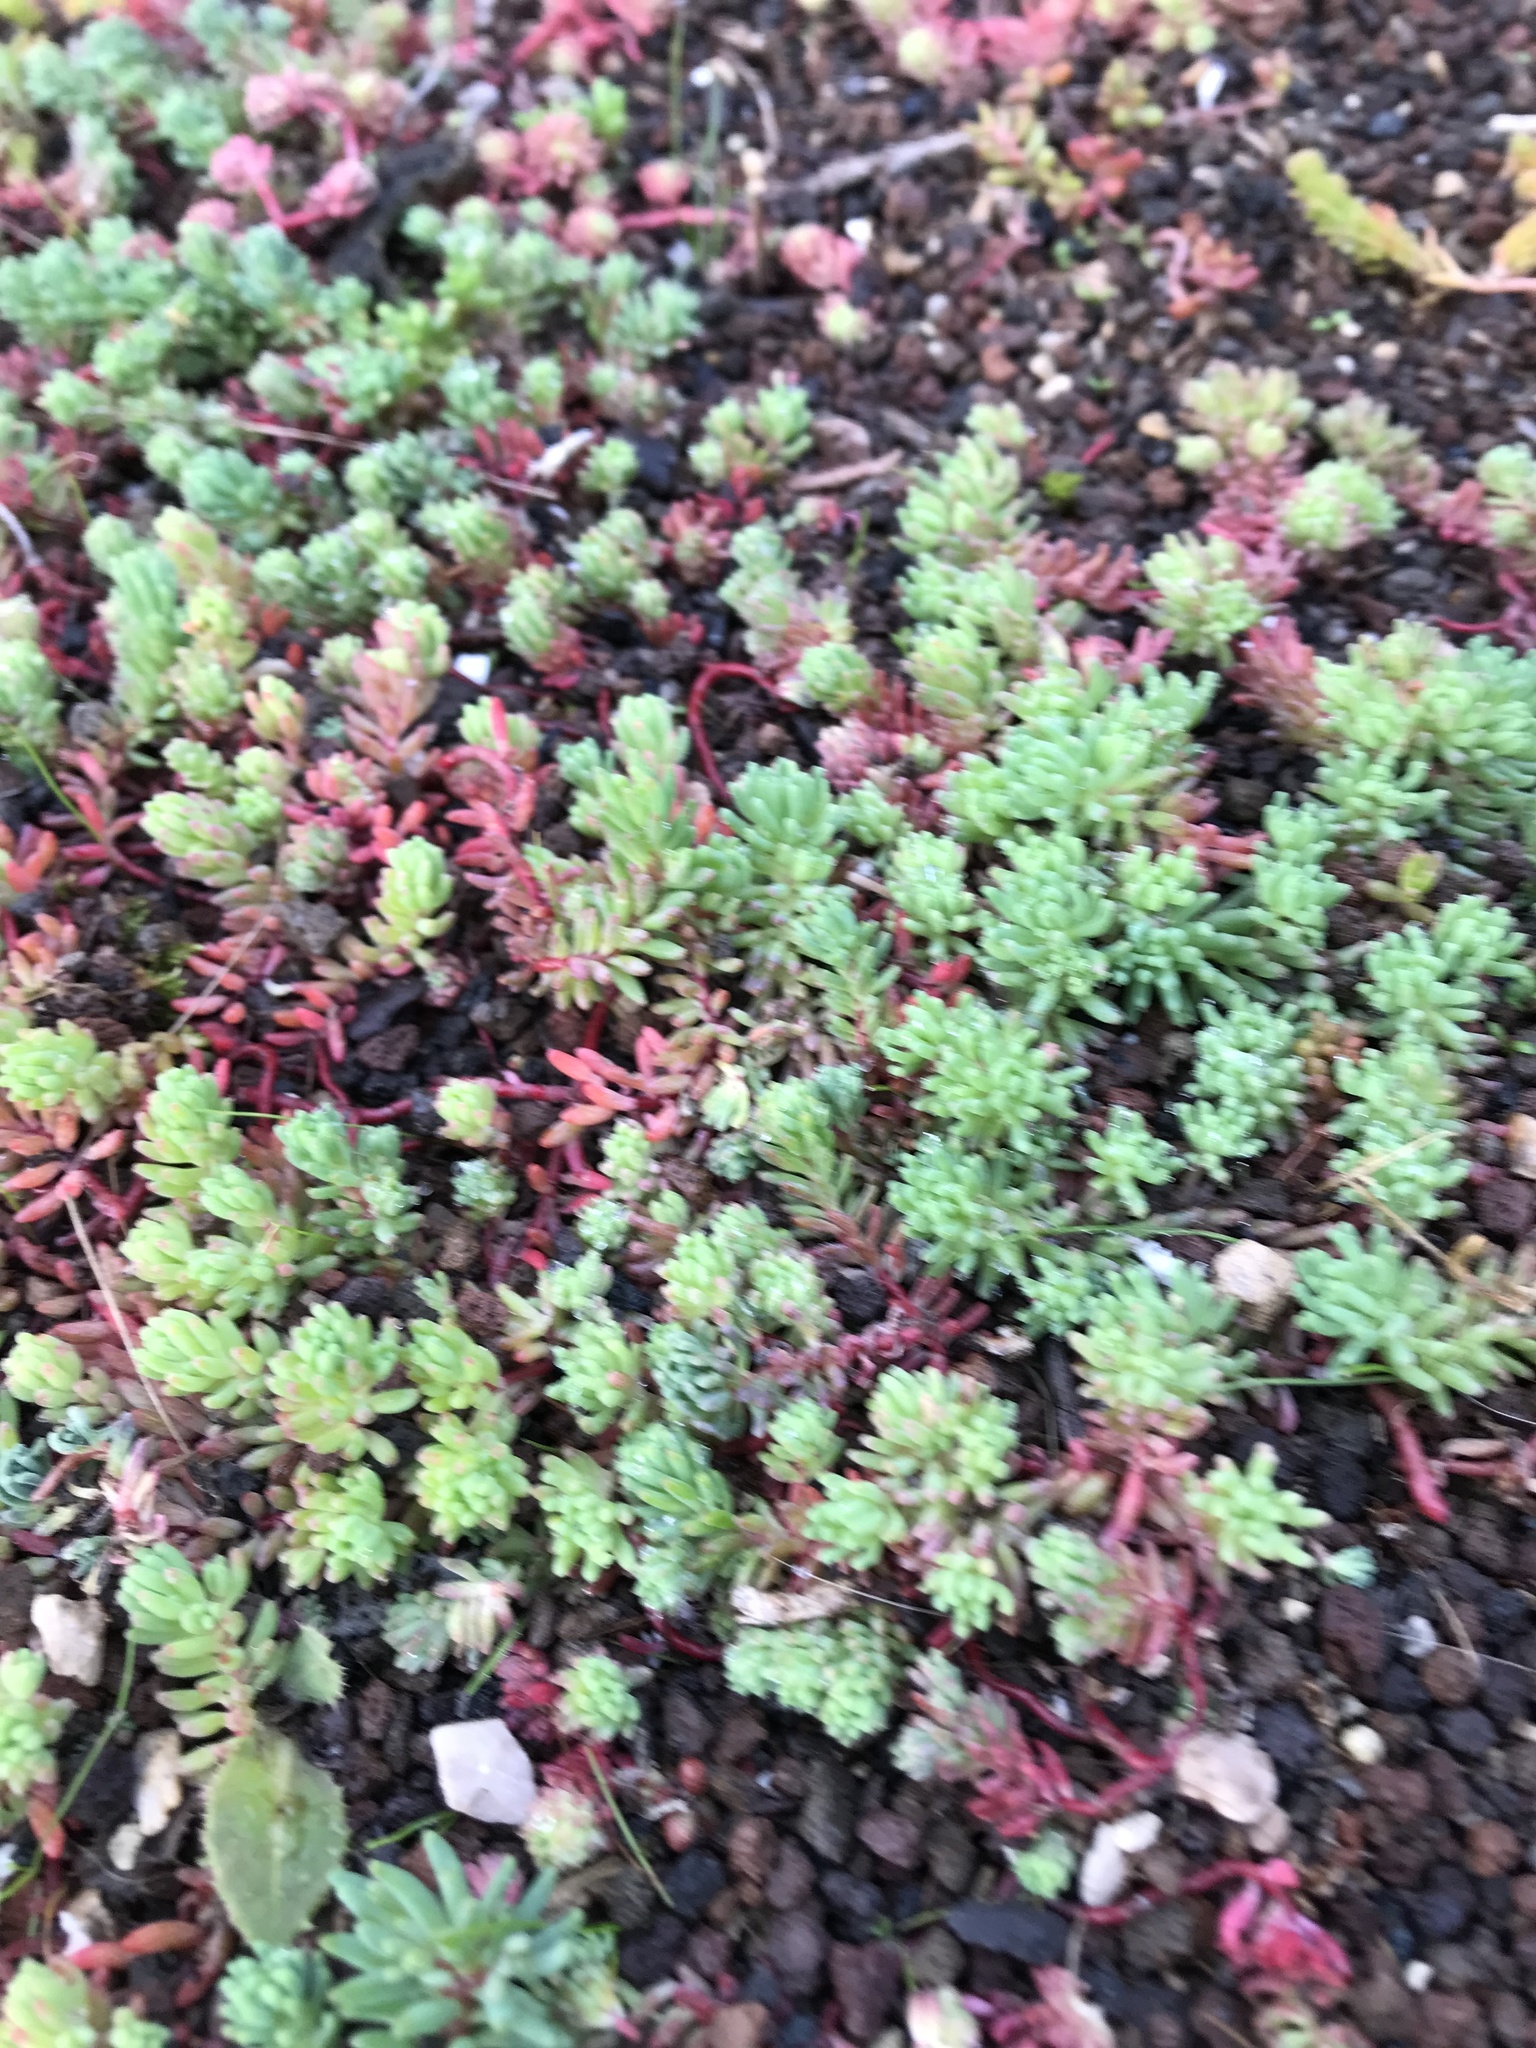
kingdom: Plantae
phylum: Tracheophyta
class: Magnoliopsida
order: Saxifragales
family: Crassulaceae
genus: Sedum
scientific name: Sedum pallidum
